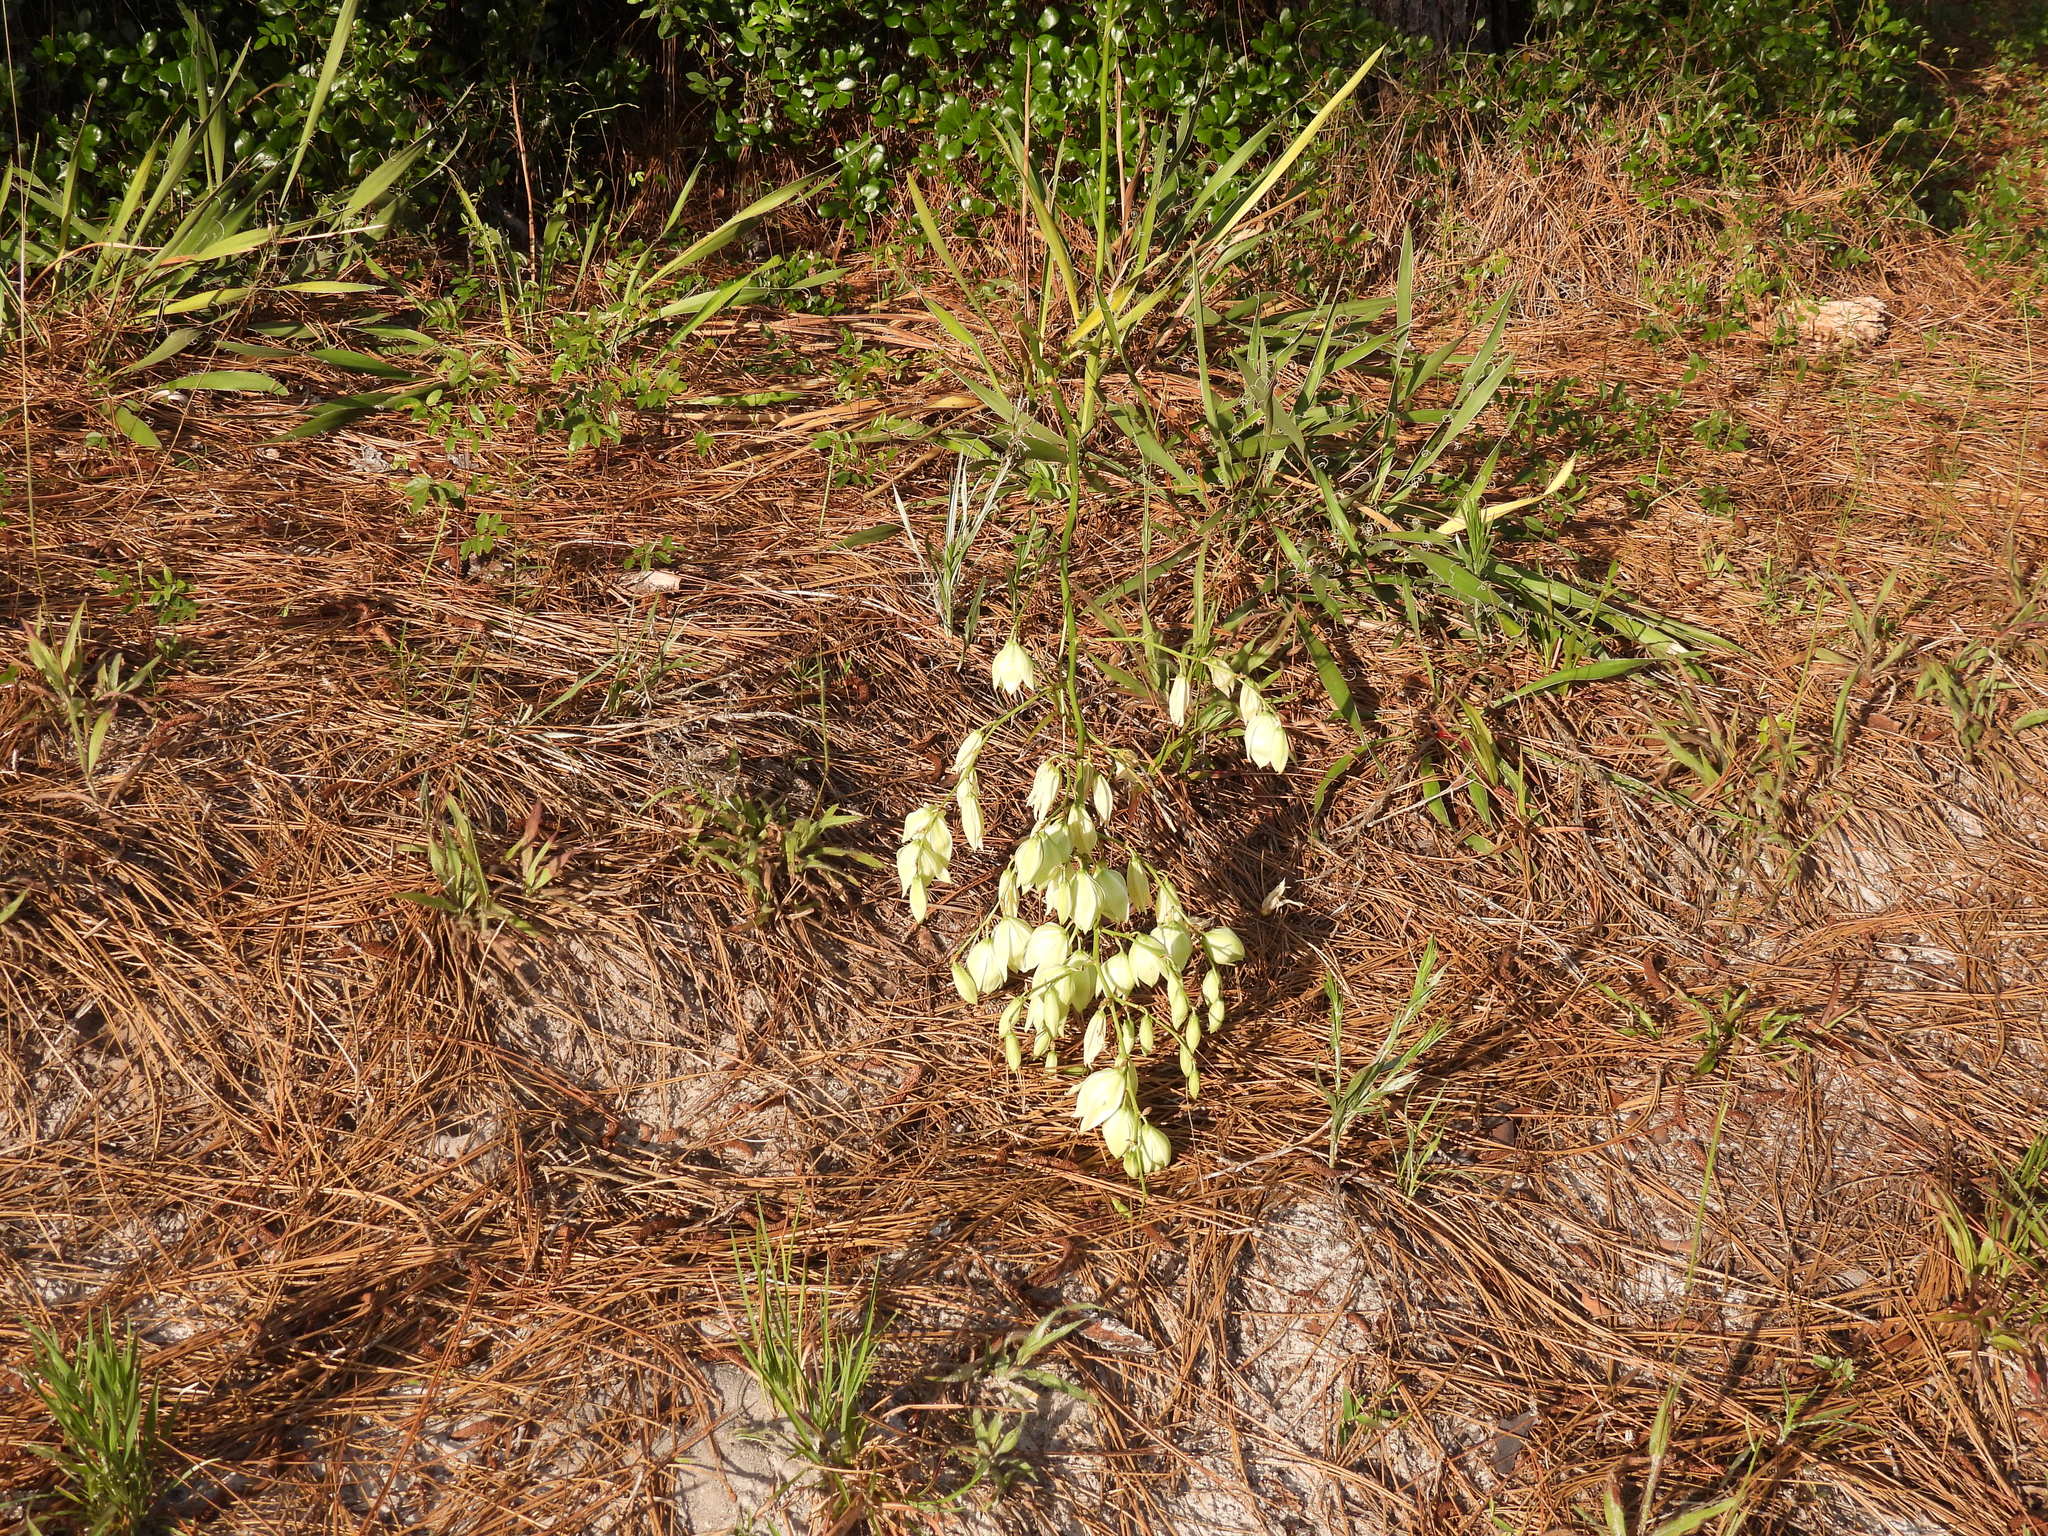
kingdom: Plantae
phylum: Tracheophyta
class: Liliopsida
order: Asparagales
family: Asparagaceae
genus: Yucca
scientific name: Yucca filamentosa
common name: Adam's-needle
